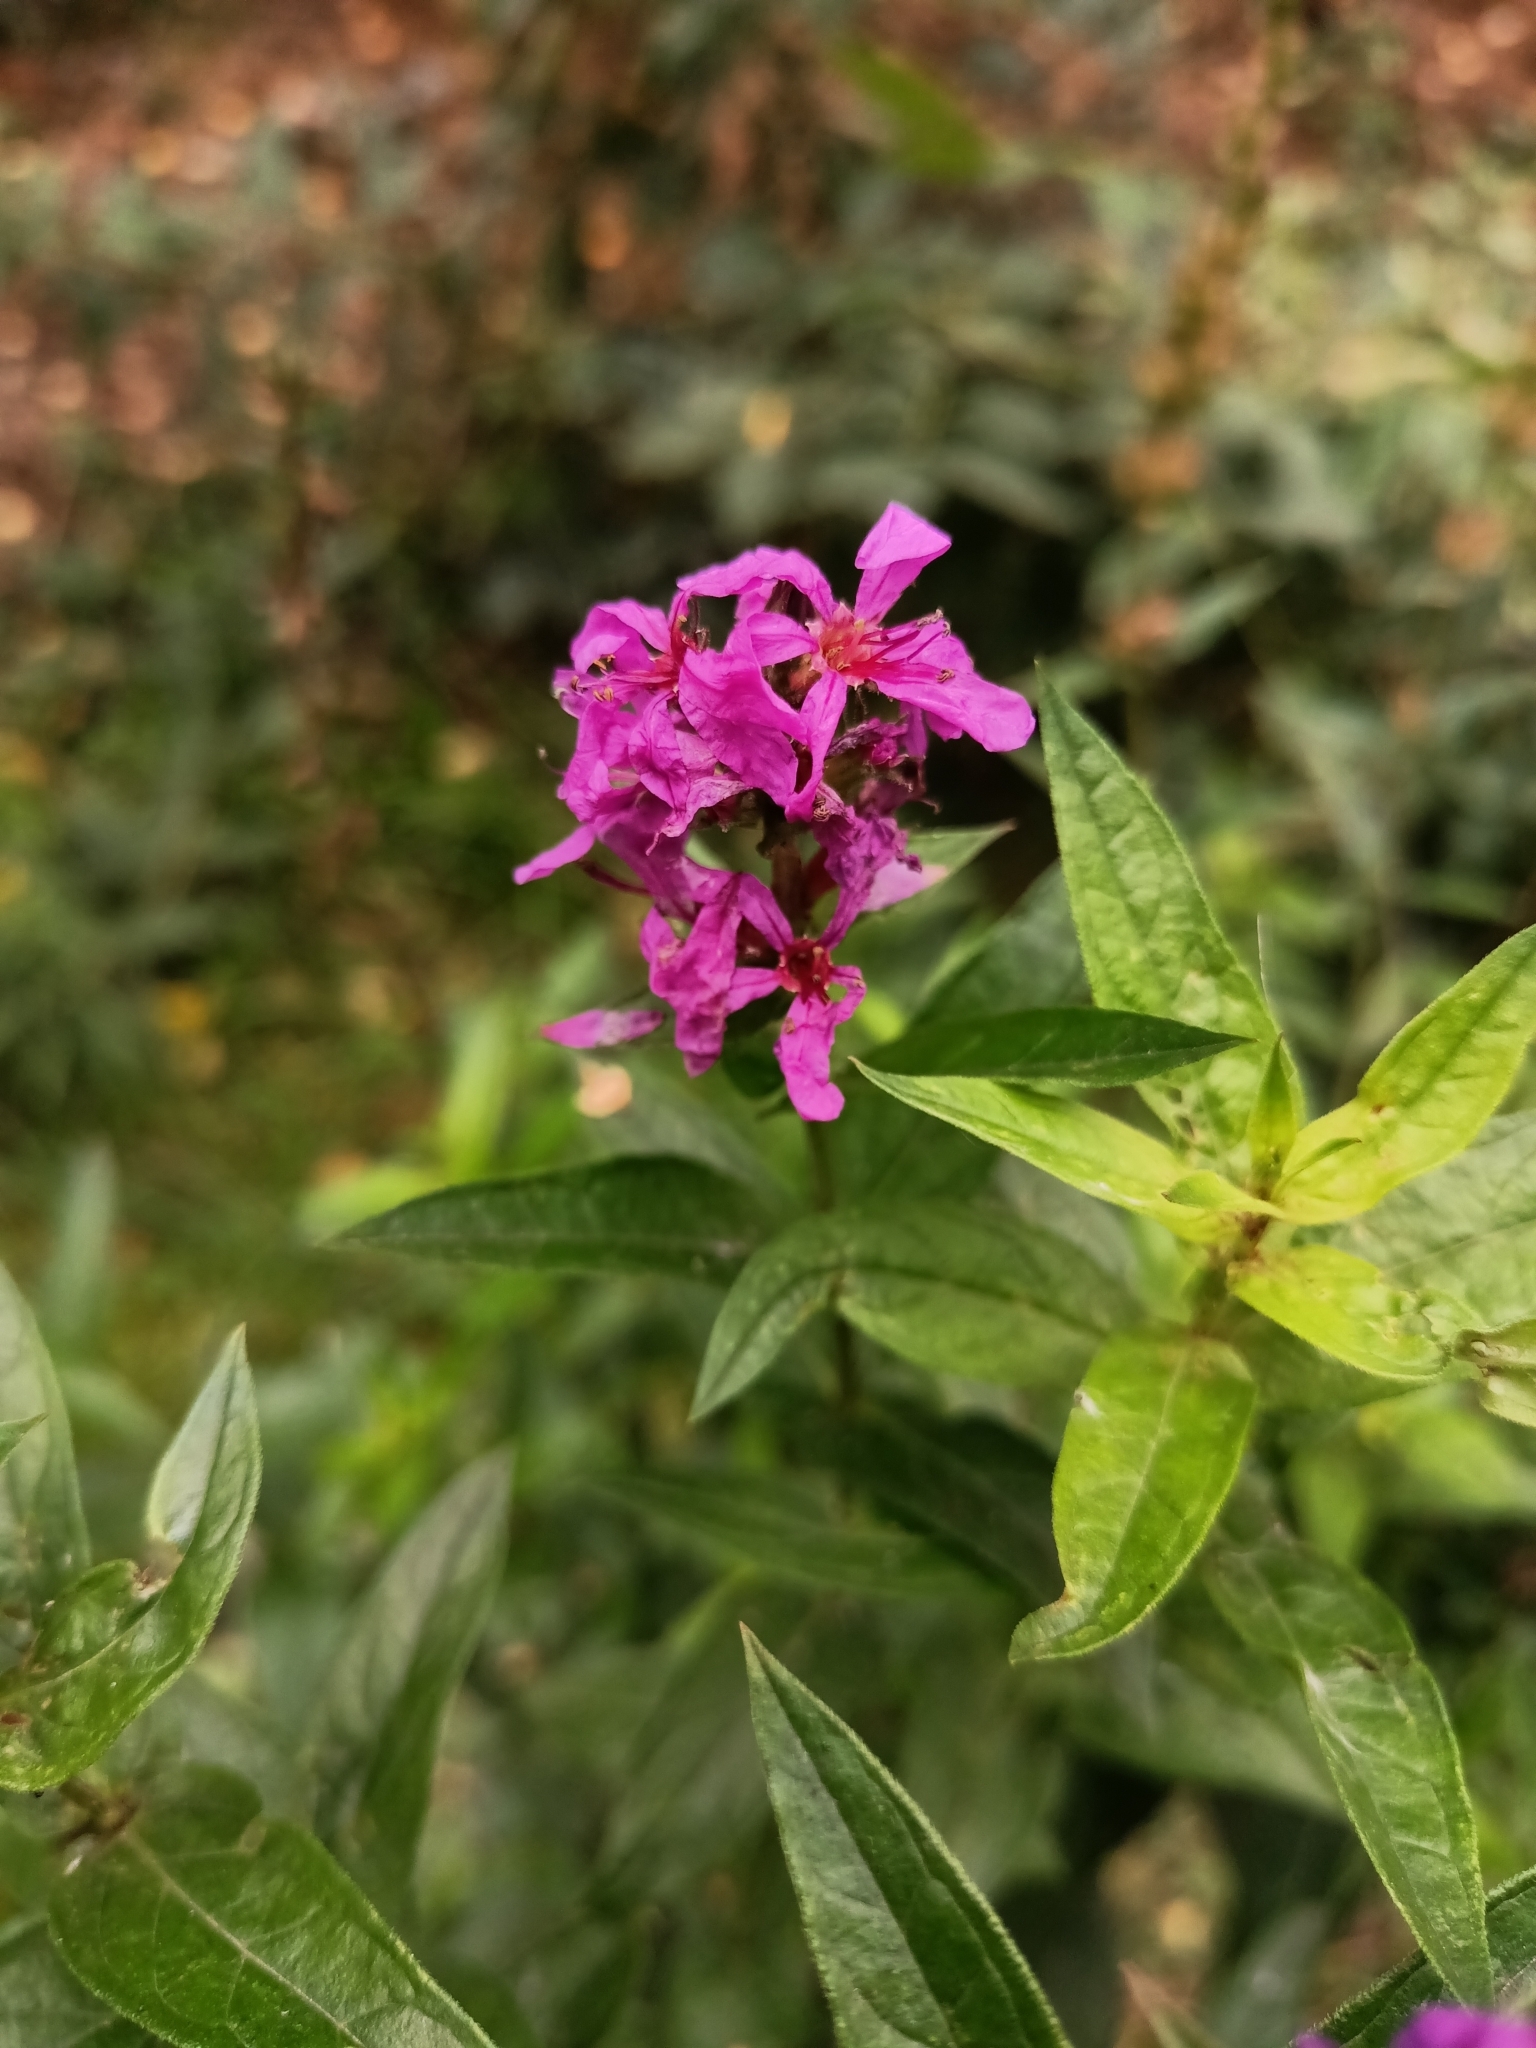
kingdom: Plantae
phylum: Tracheophyta
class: Magnoliopsida
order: Myrtales
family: Lythraceae
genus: Lythrum
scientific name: Lythrum salicaria
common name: Purple loosestrife
